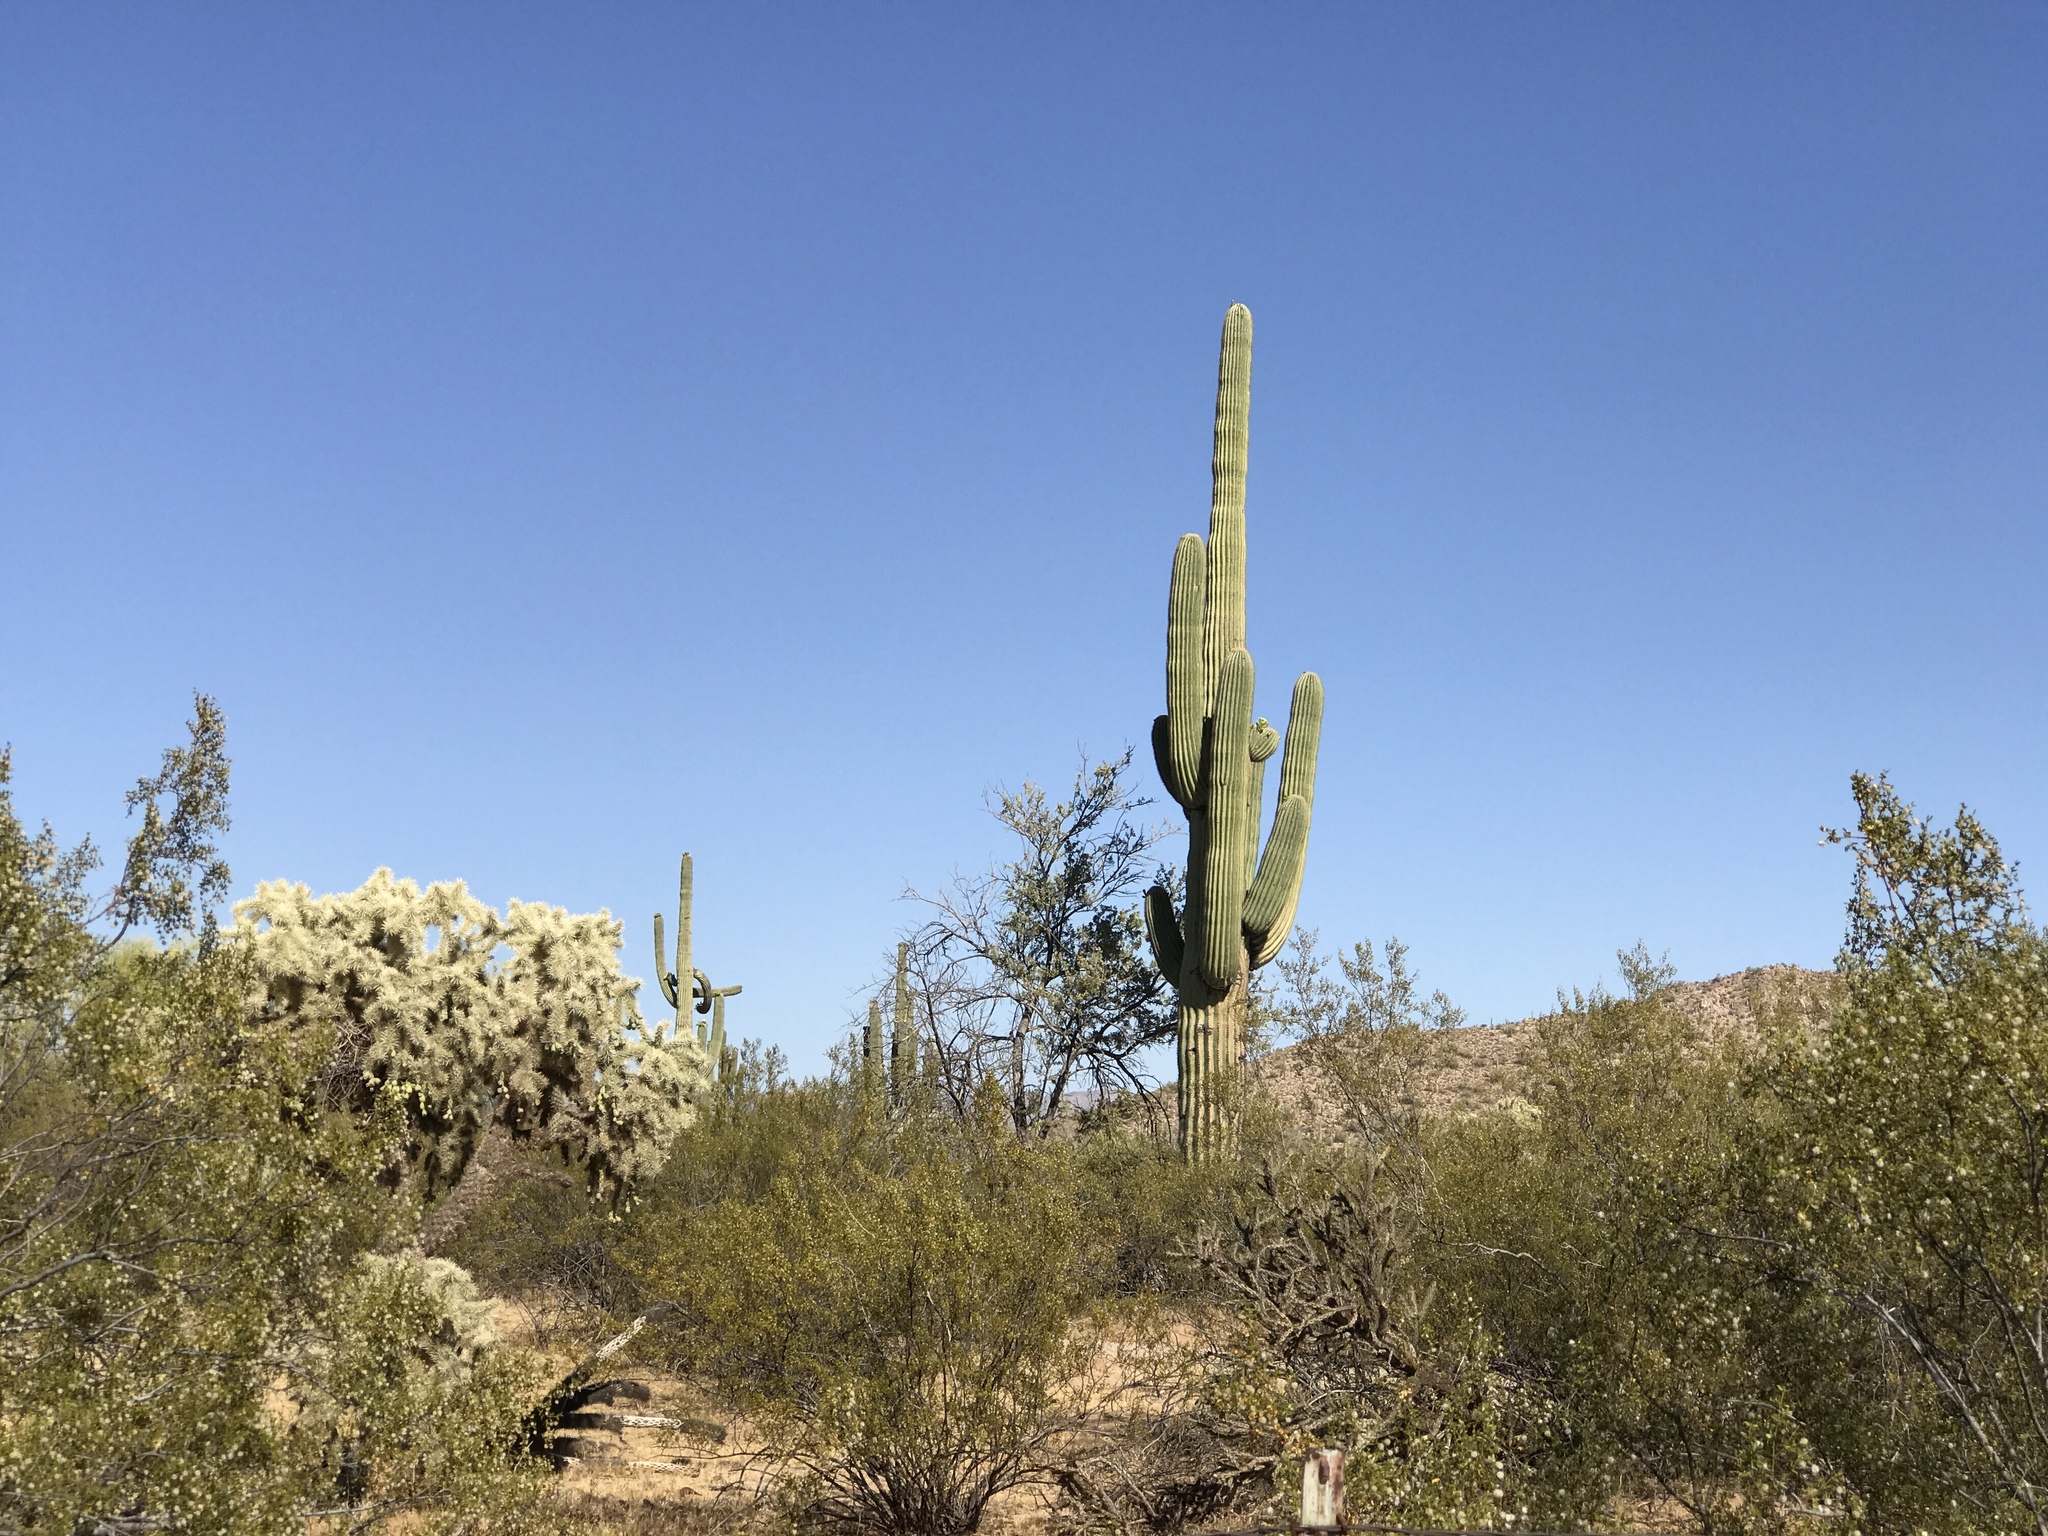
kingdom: Plantae
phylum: Tracheophyta
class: Magnoliopsida
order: Caryophyllales
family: Cactaceae
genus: Carnegiea
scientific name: Carnegiea gigantea
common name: Saguaro
